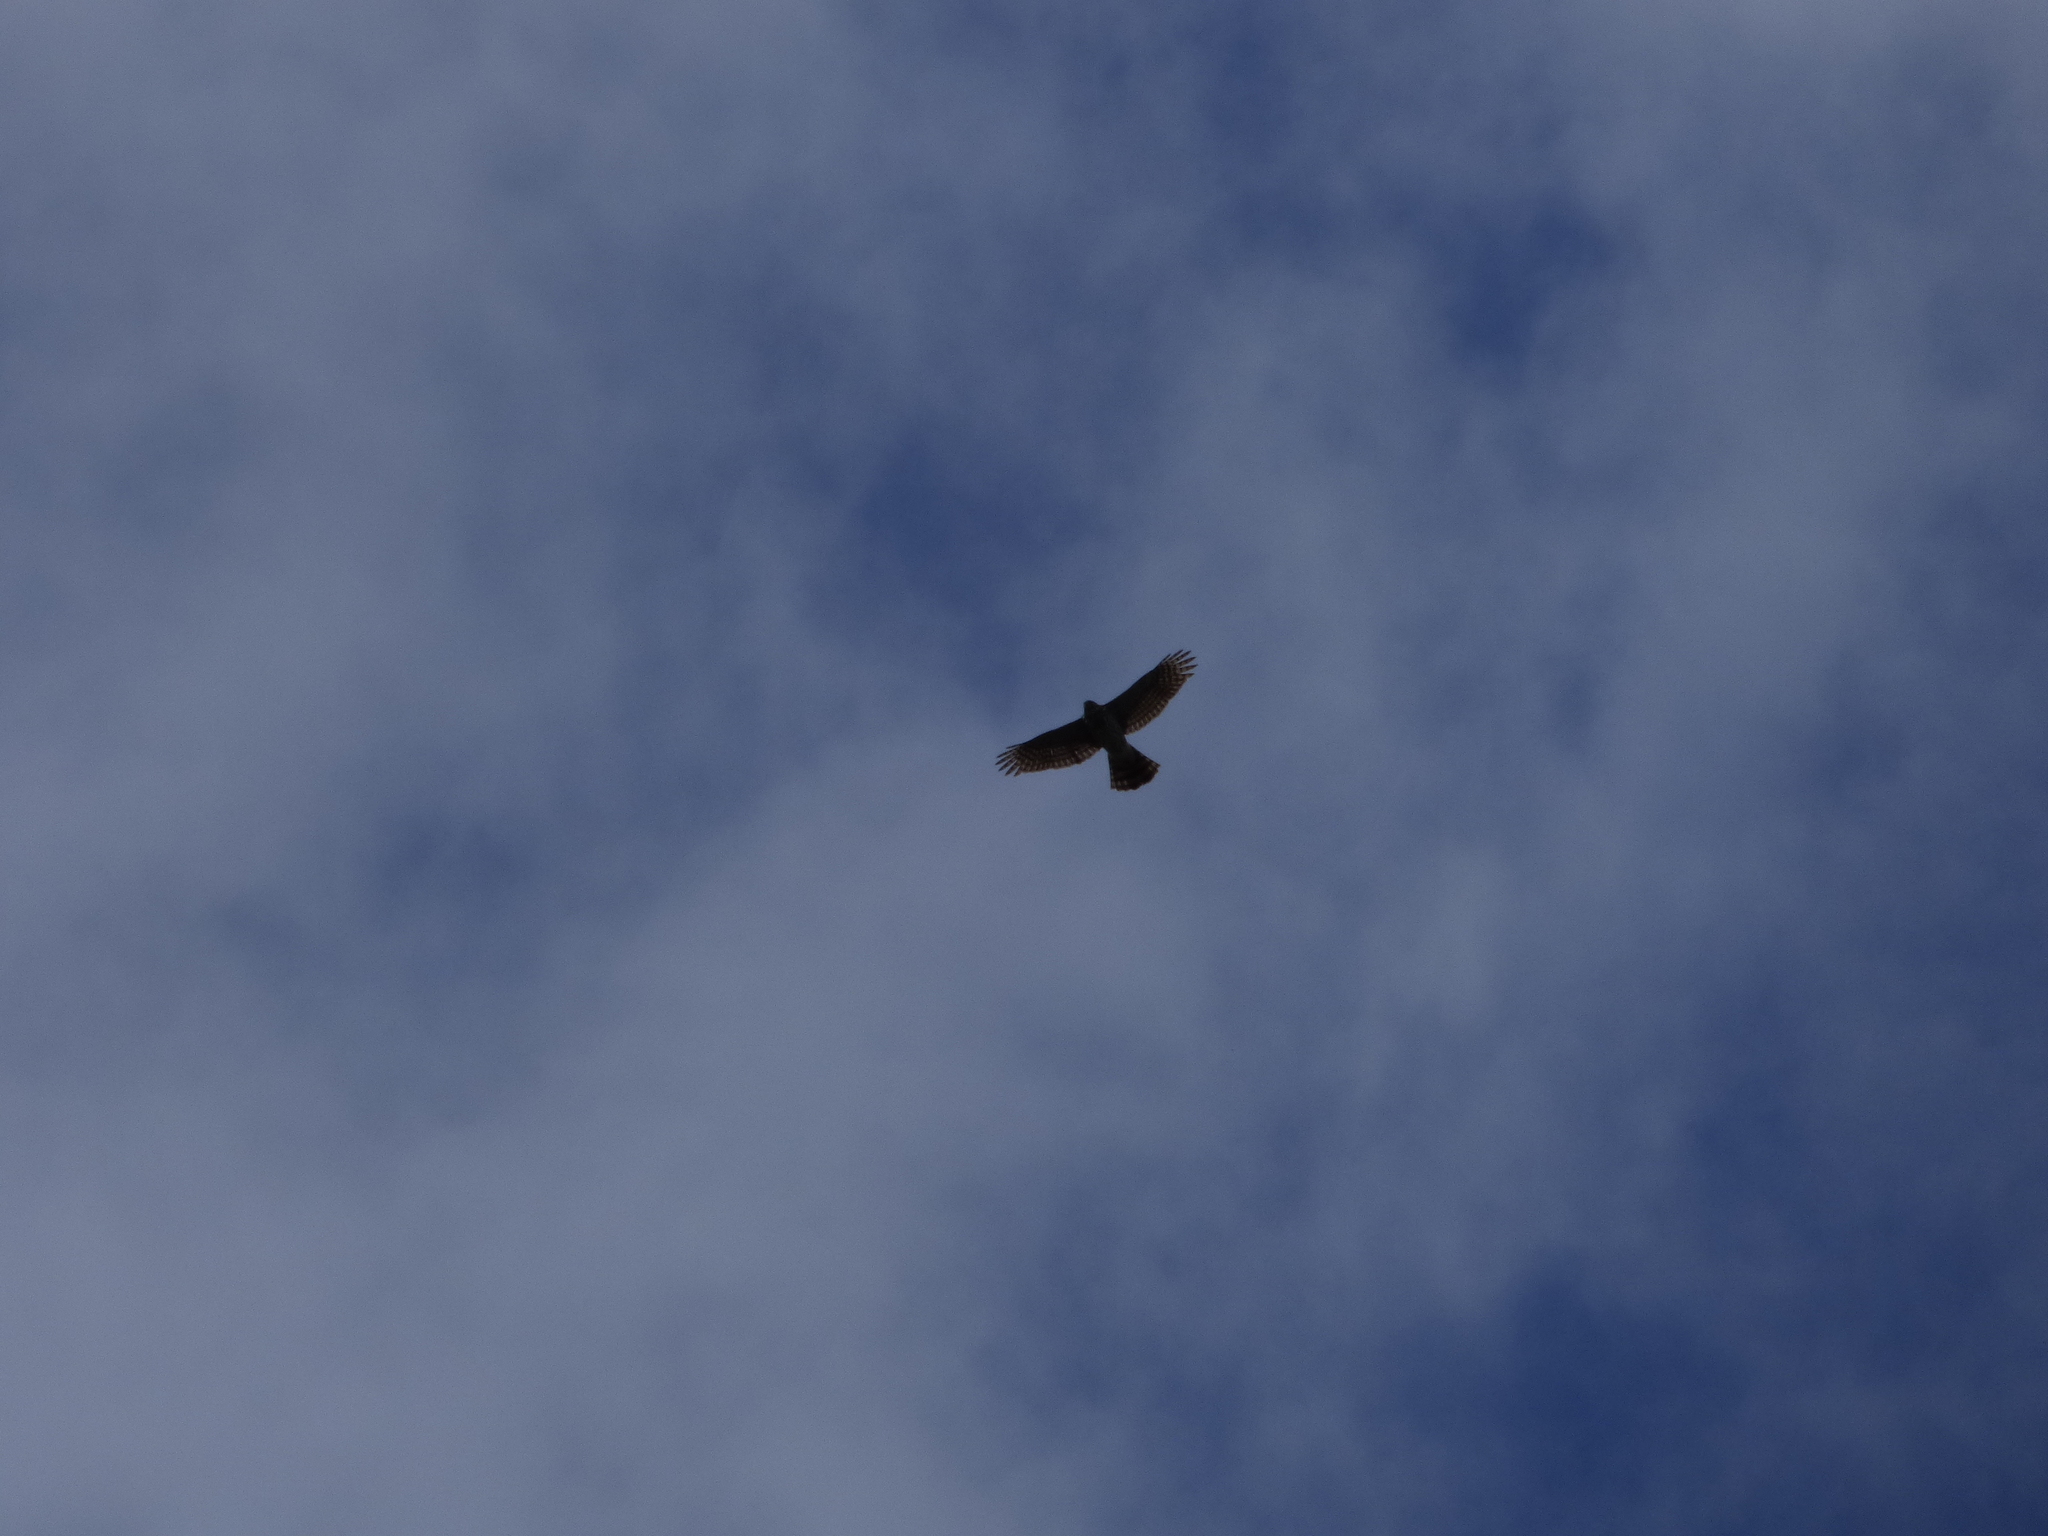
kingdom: Animalia
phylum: Chordata
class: Aves
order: Accipitriformes
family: Accipitridae
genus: Buteo
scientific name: Buteo jamaicensis
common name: Red-tailed hawk
